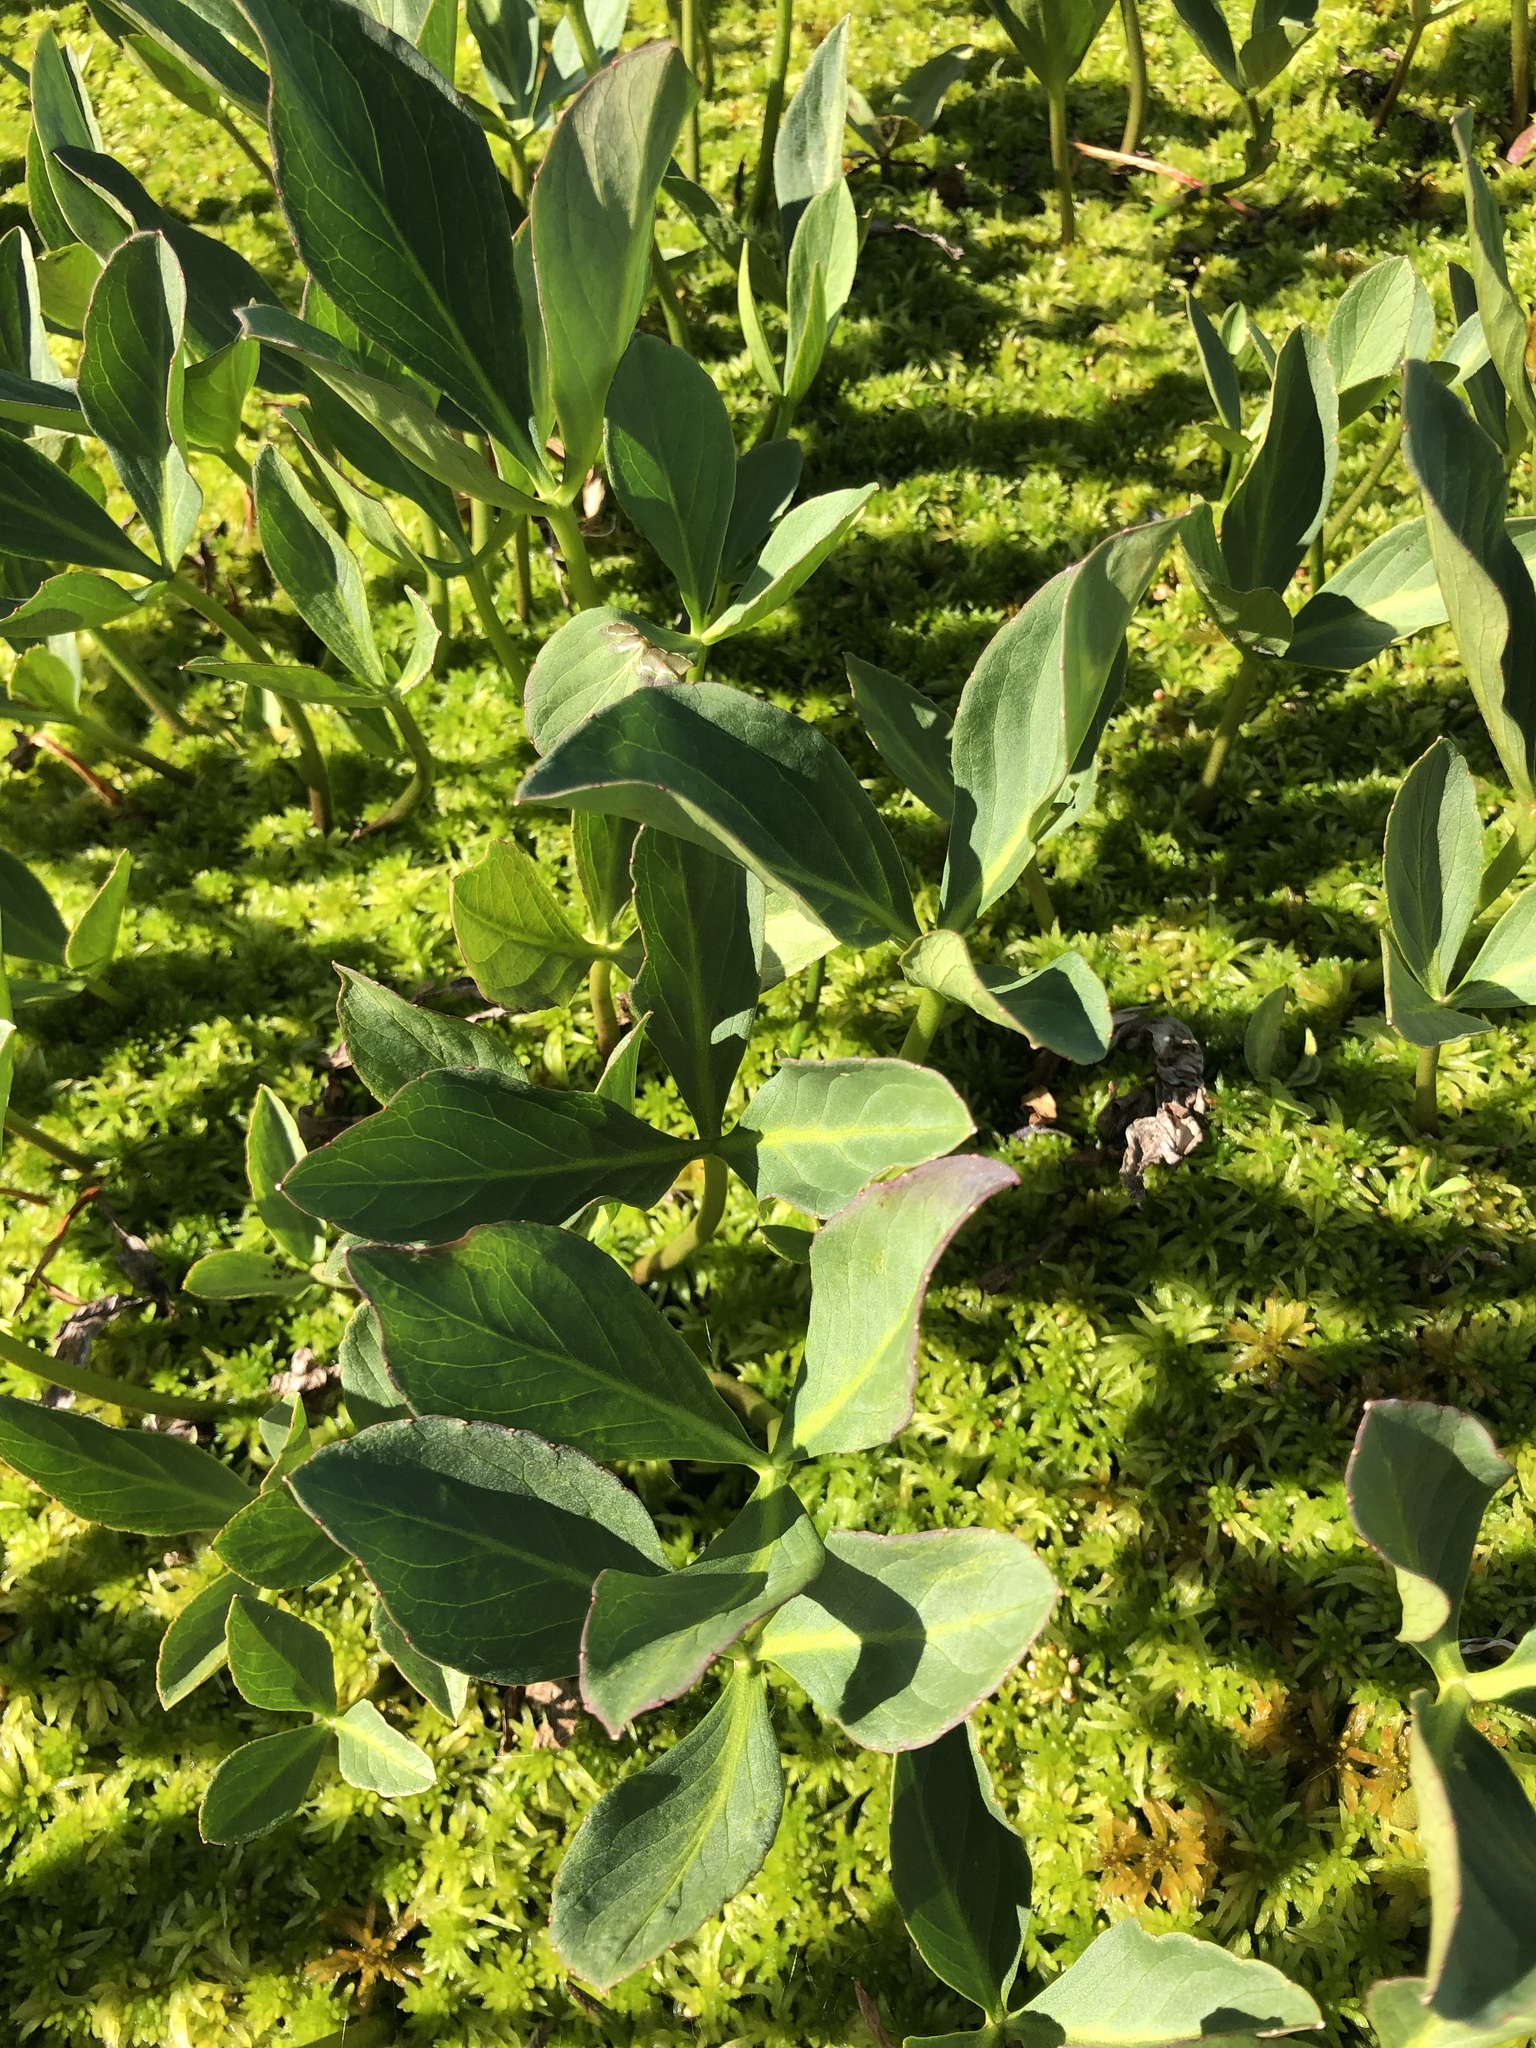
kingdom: Plantae
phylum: Tracheophyta
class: Magnoliopsida
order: Asterales
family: Menyanthaceae
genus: Menyanthes
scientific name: Menyanthes trifoliata
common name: Bogbean
